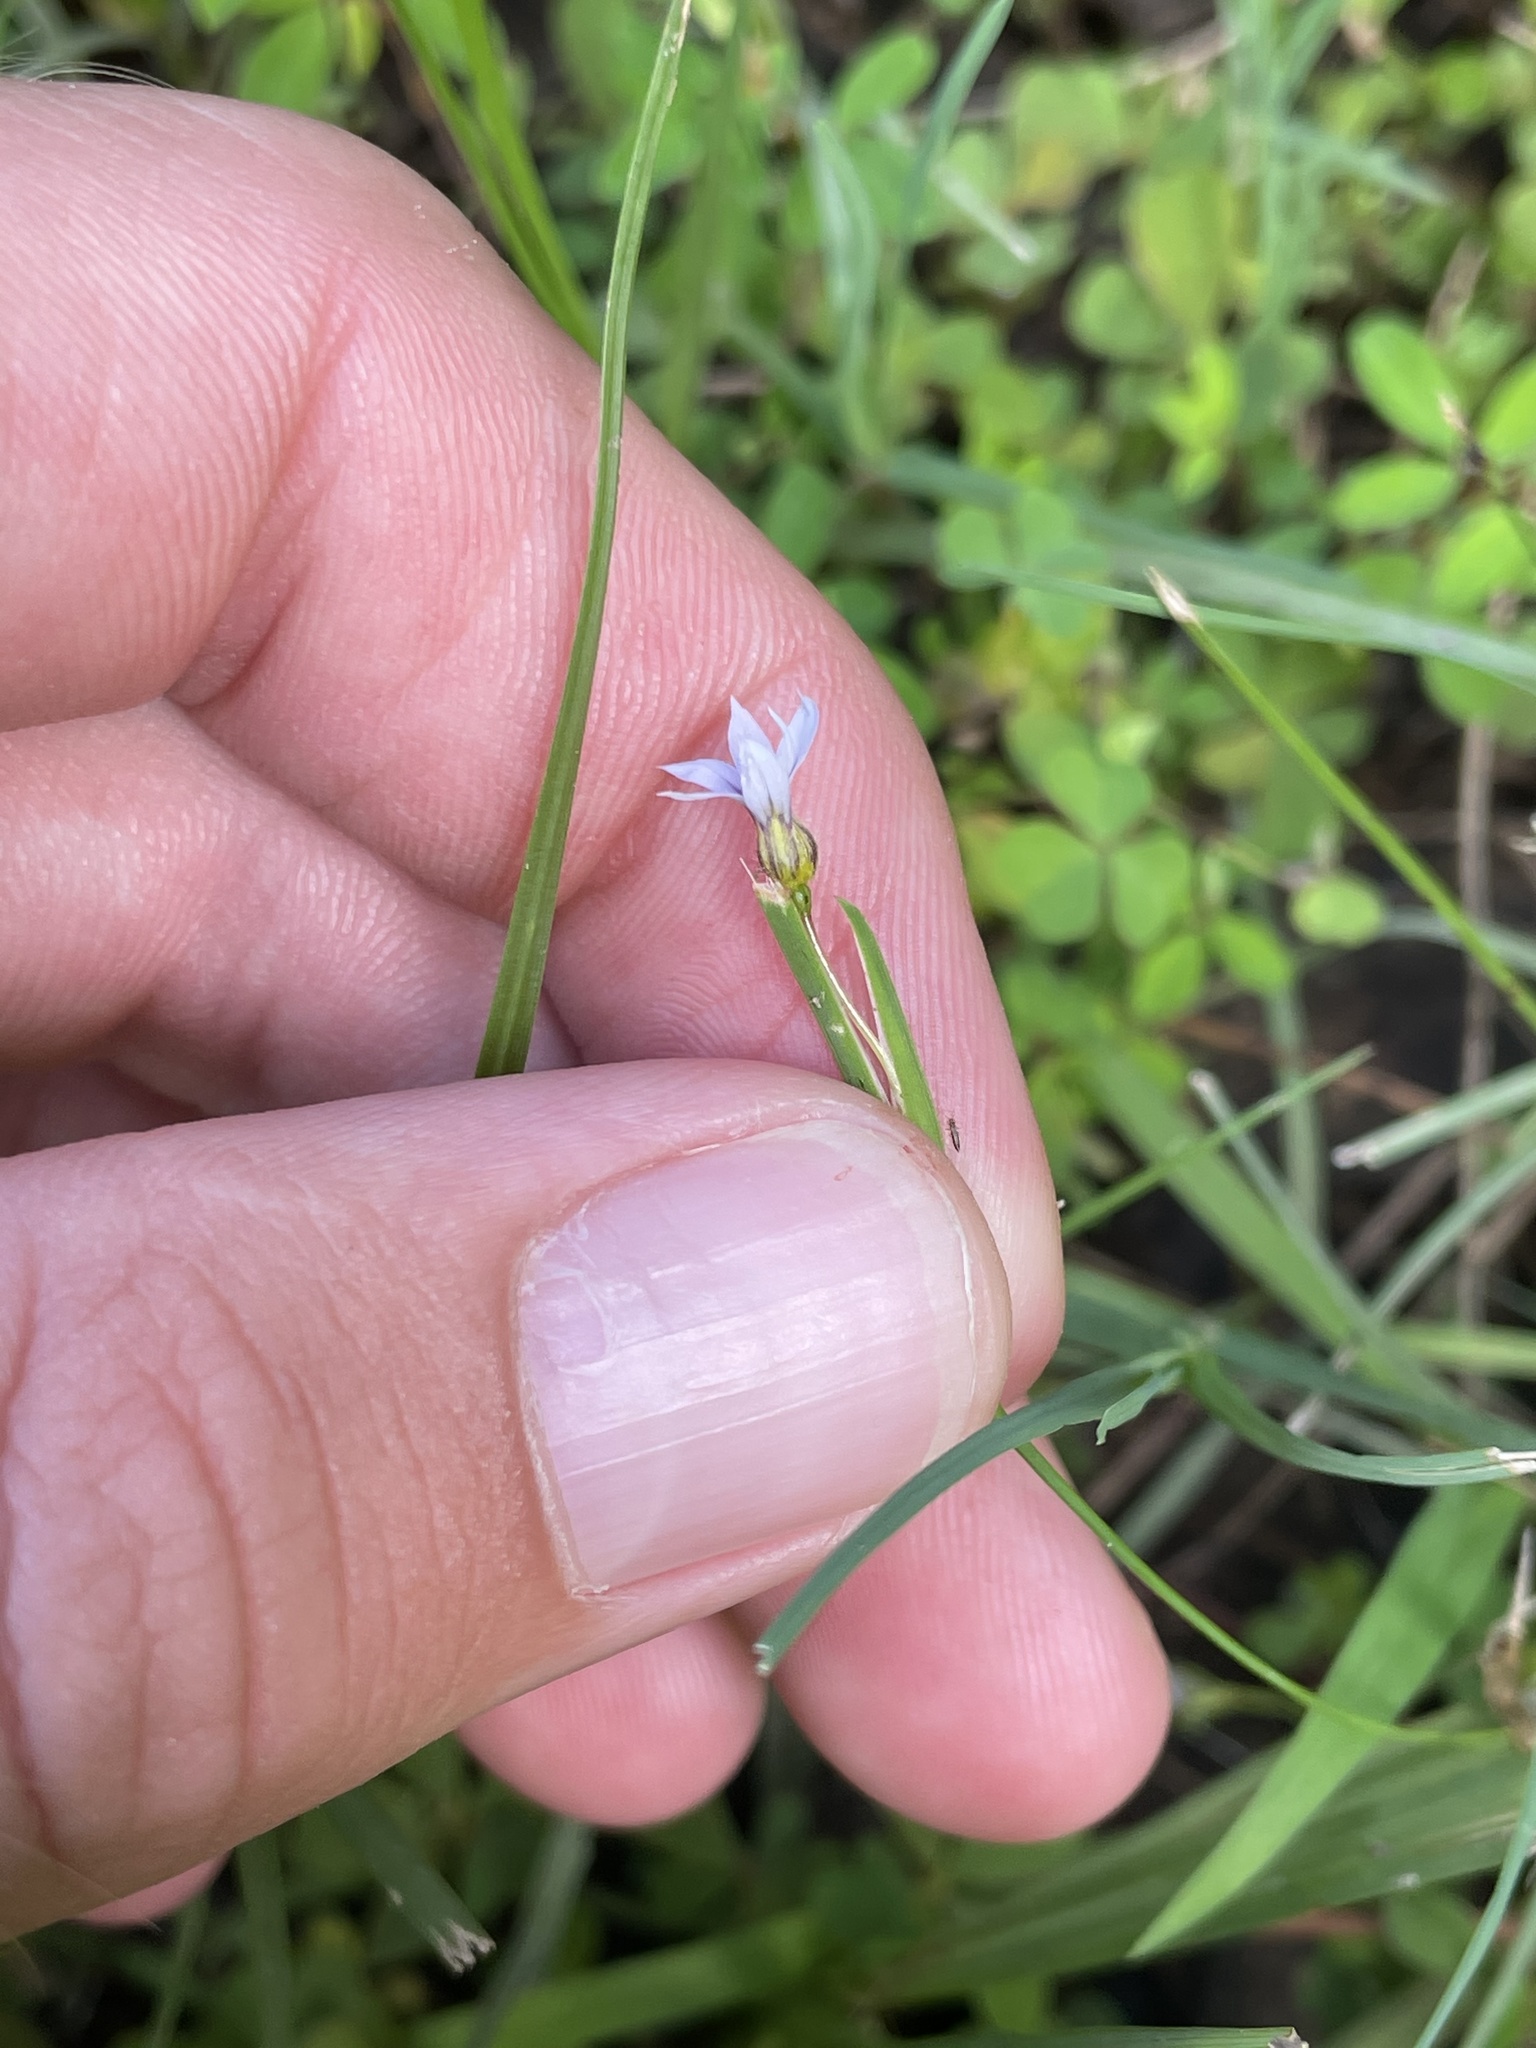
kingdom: Plantae
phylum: Tracheophyta
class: Liliopsida
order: Asparagales
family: Iridaceae
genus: Sisyrinchium
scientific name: Sisyrinchium micranthum
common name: Bermuda pigroot
